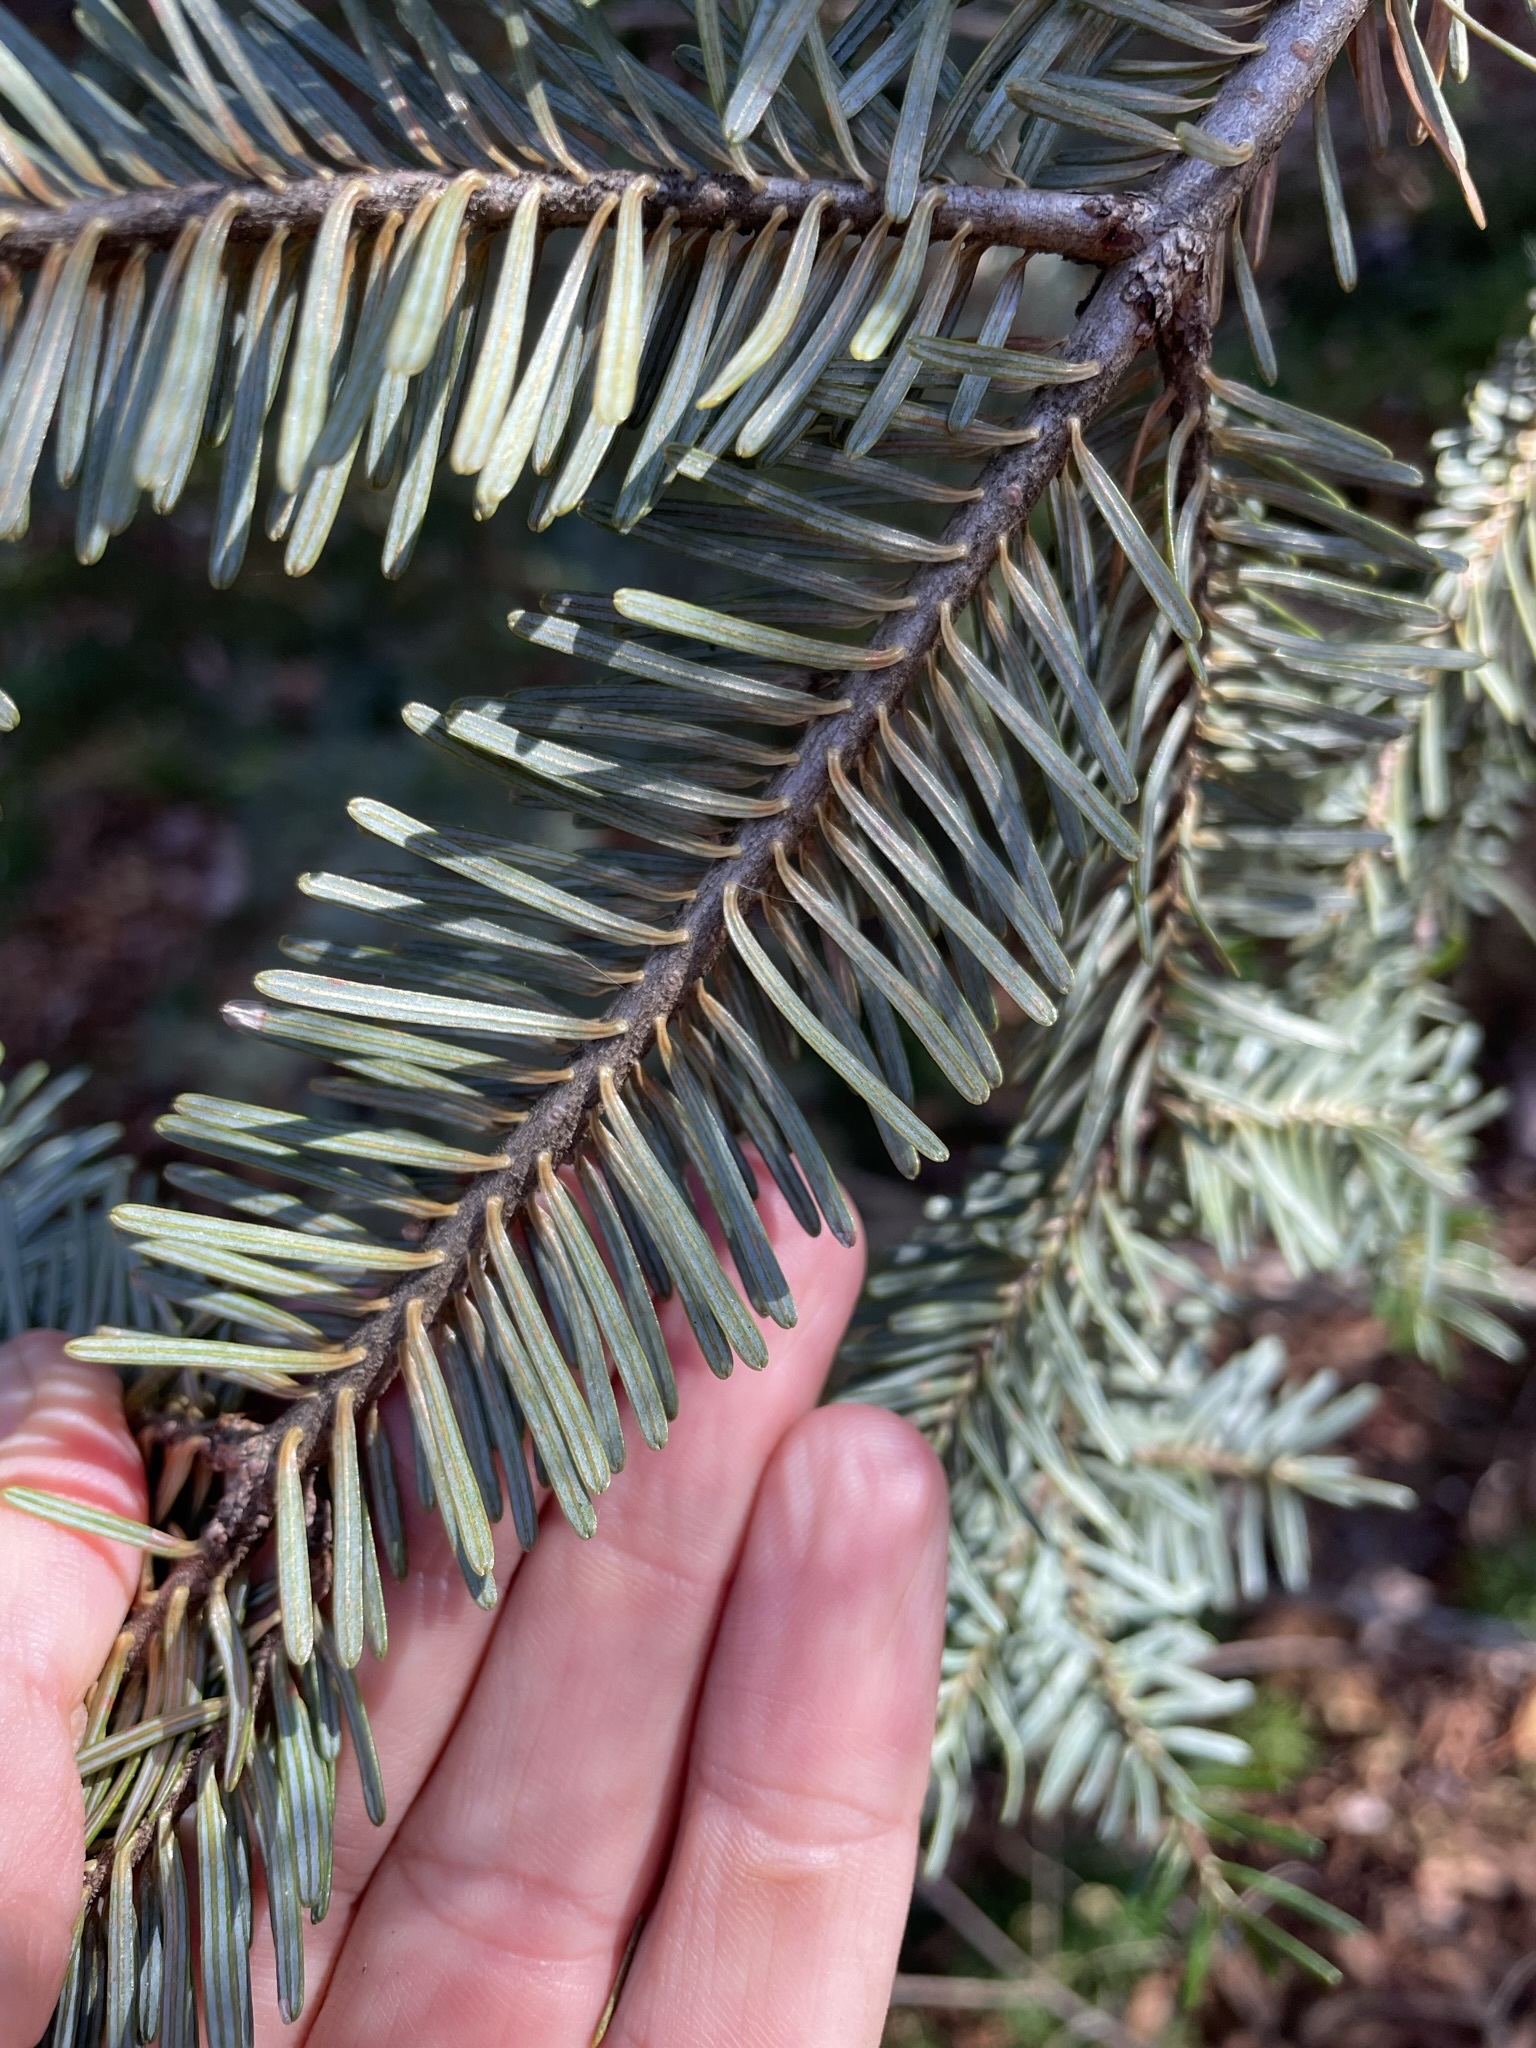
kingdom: Plantae
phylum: Tracheophyta
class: Pinopsida
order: Pinales
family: Pinaceae
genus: Abies
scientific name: Abies fraseri
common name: Fraser fir
